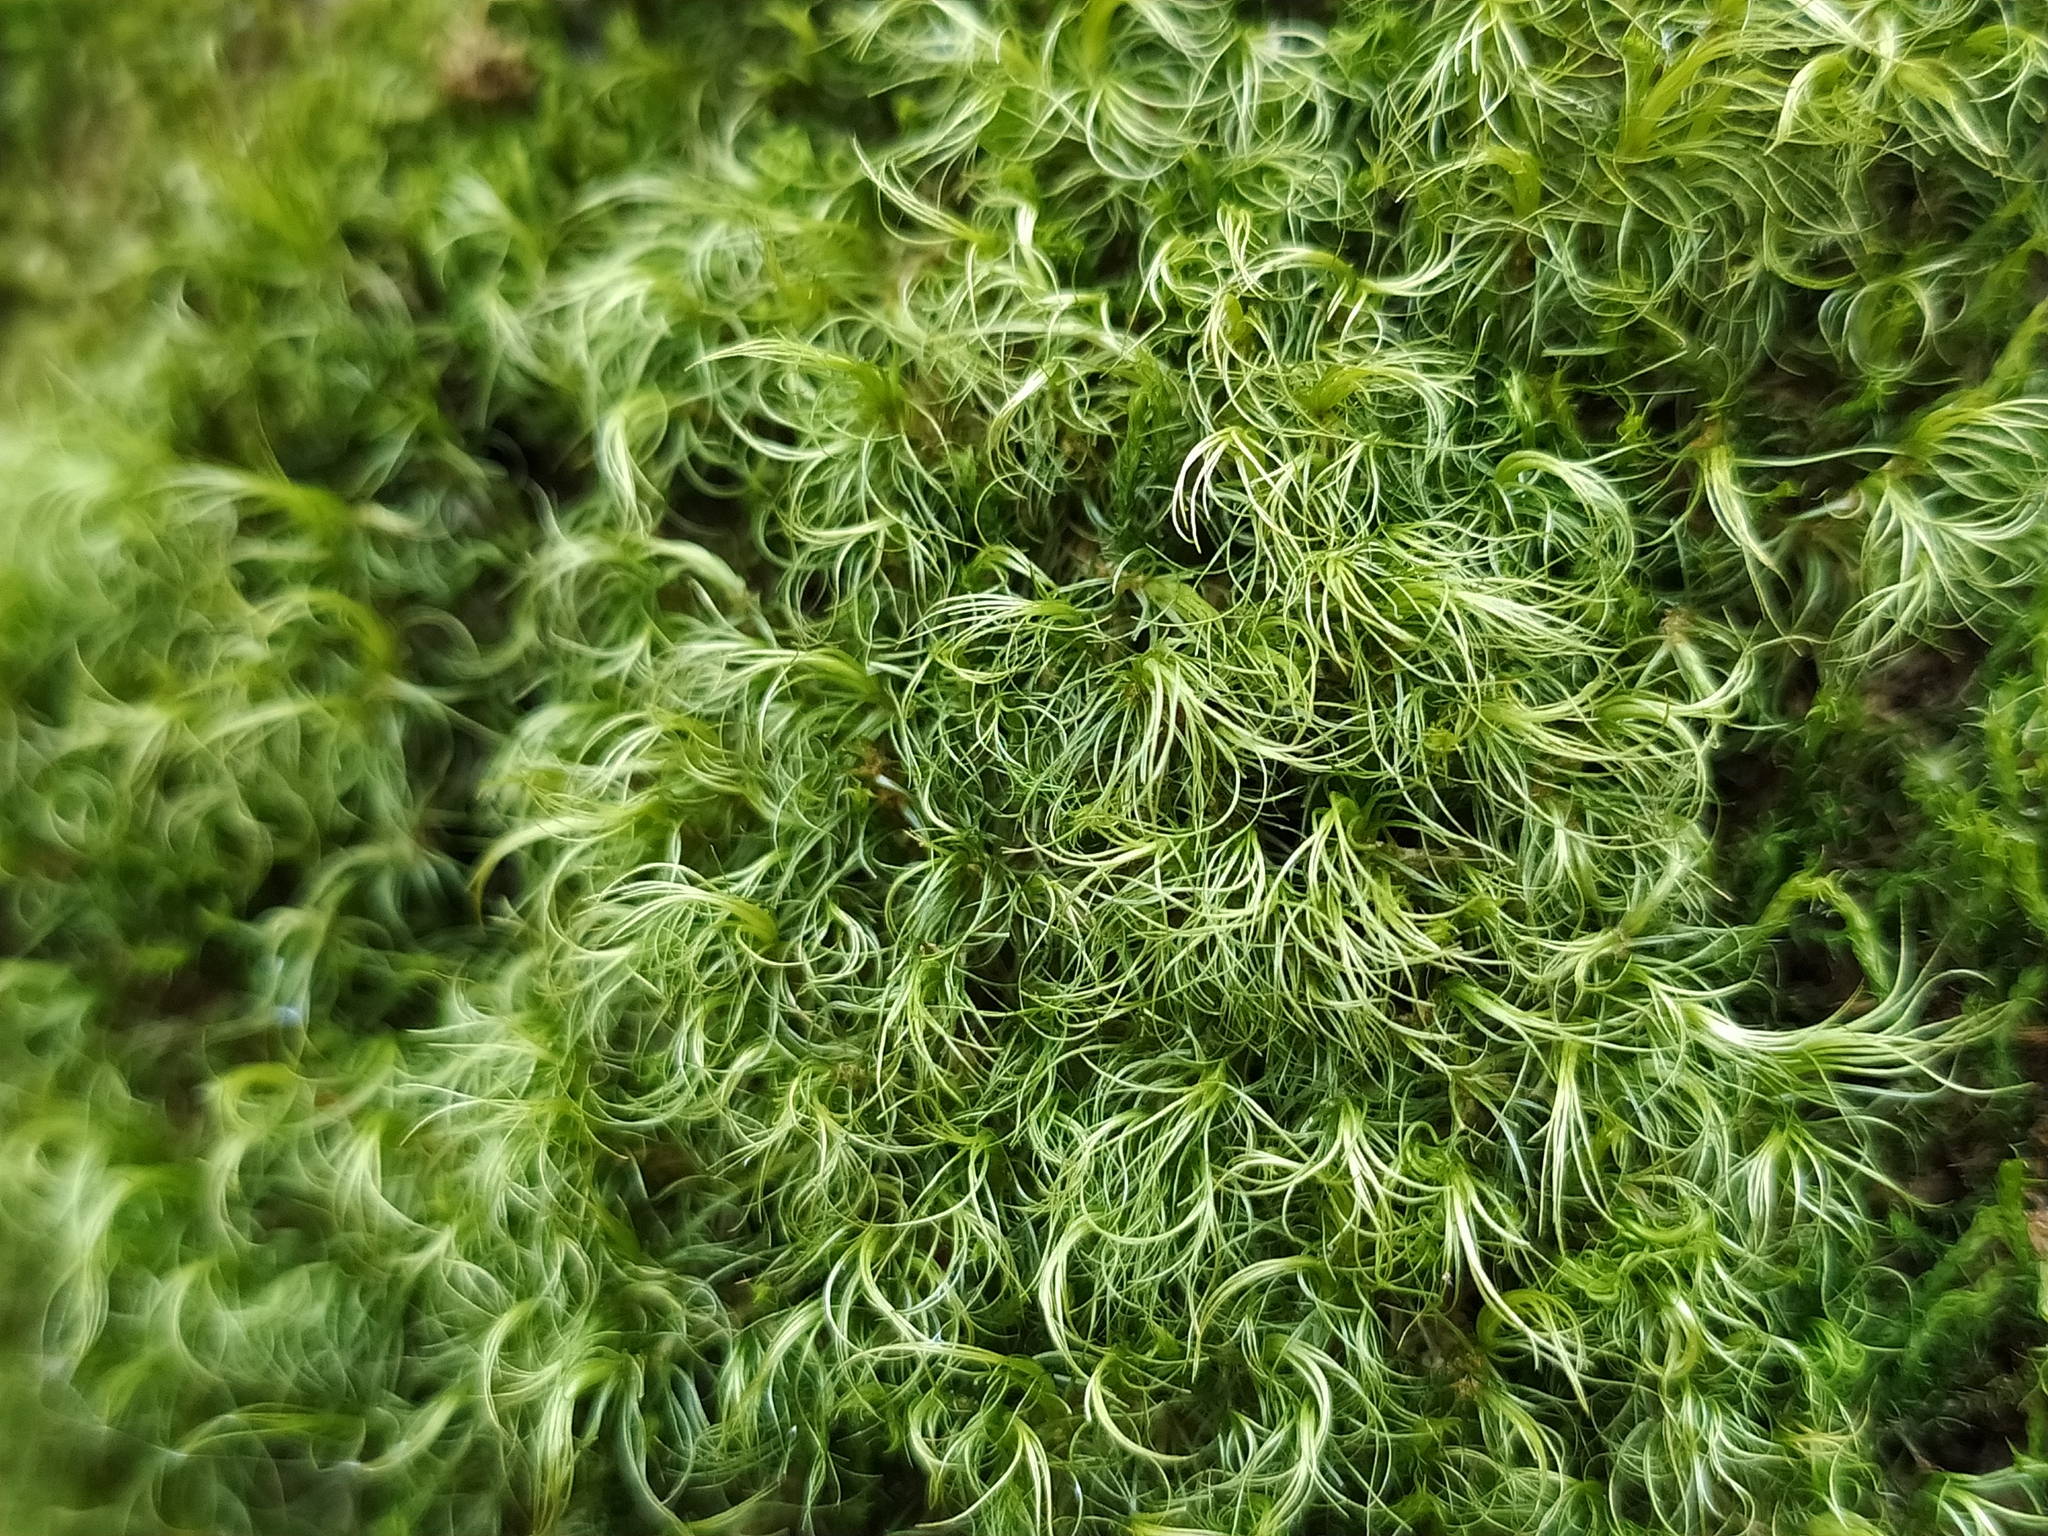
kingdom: Plantae
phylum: Bryophyta
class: Bryopsida
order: Dicranales
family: Dicranaceae
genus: Paraleucobryum
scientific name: Paraleucobryum longifolium
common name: Long-leaved fork moss
